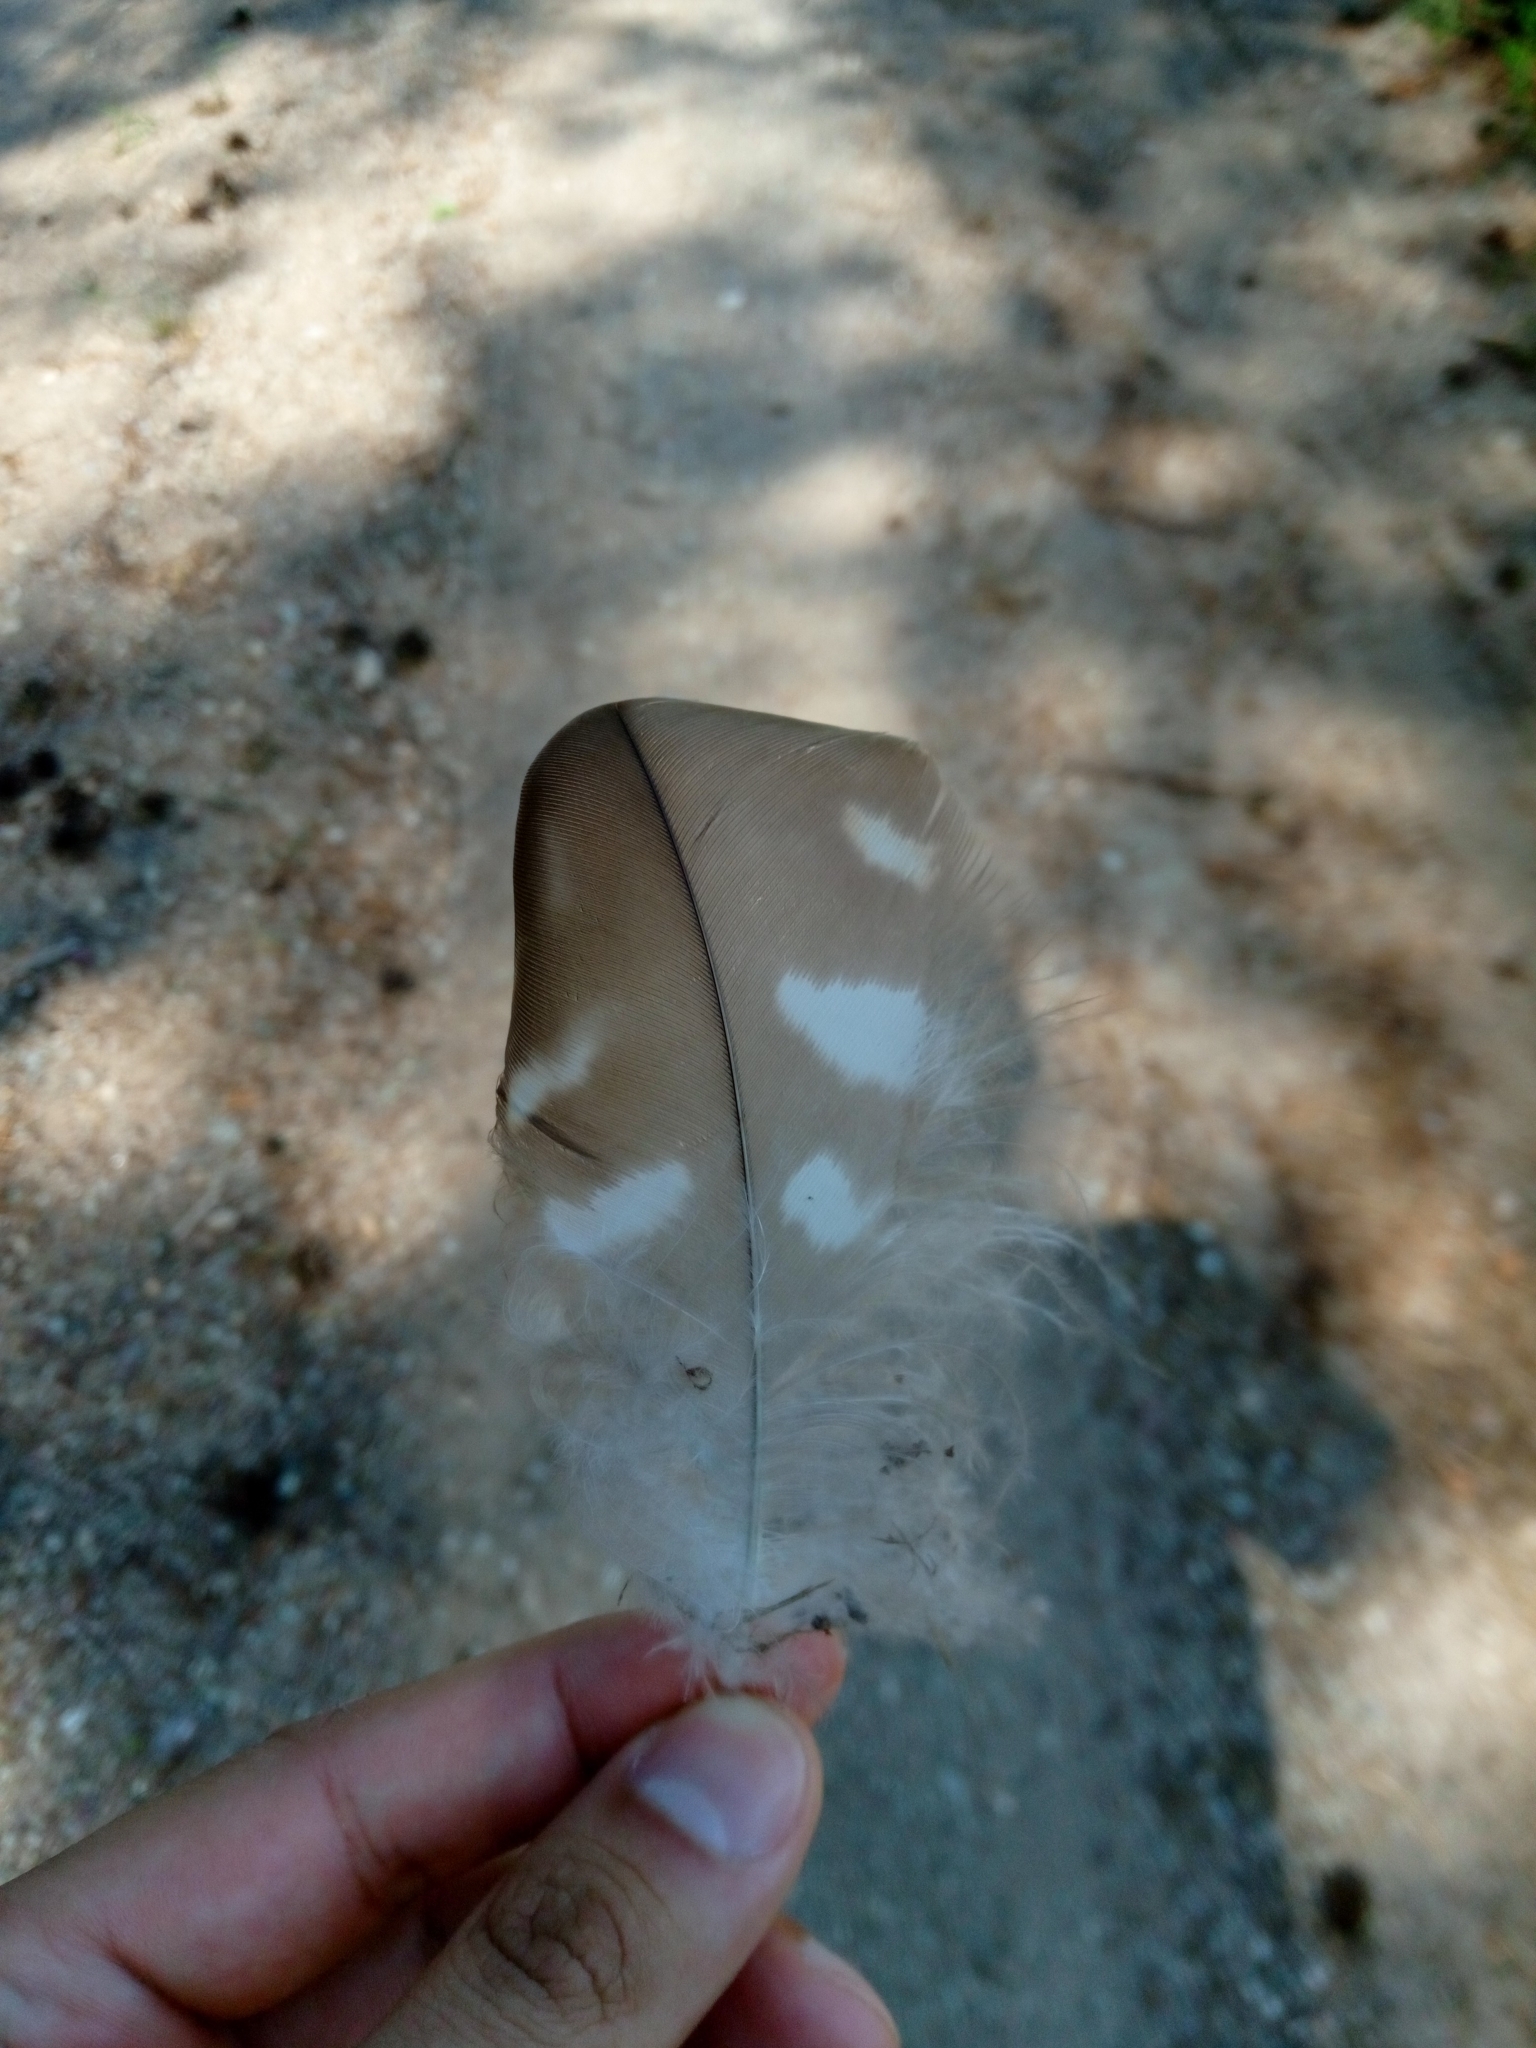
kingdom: Animalia
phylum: Chordata
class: Aves
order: Accipitriformes
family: Accipitridae
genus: Buteo
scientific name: Buteo buteo
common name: Common buzzard
